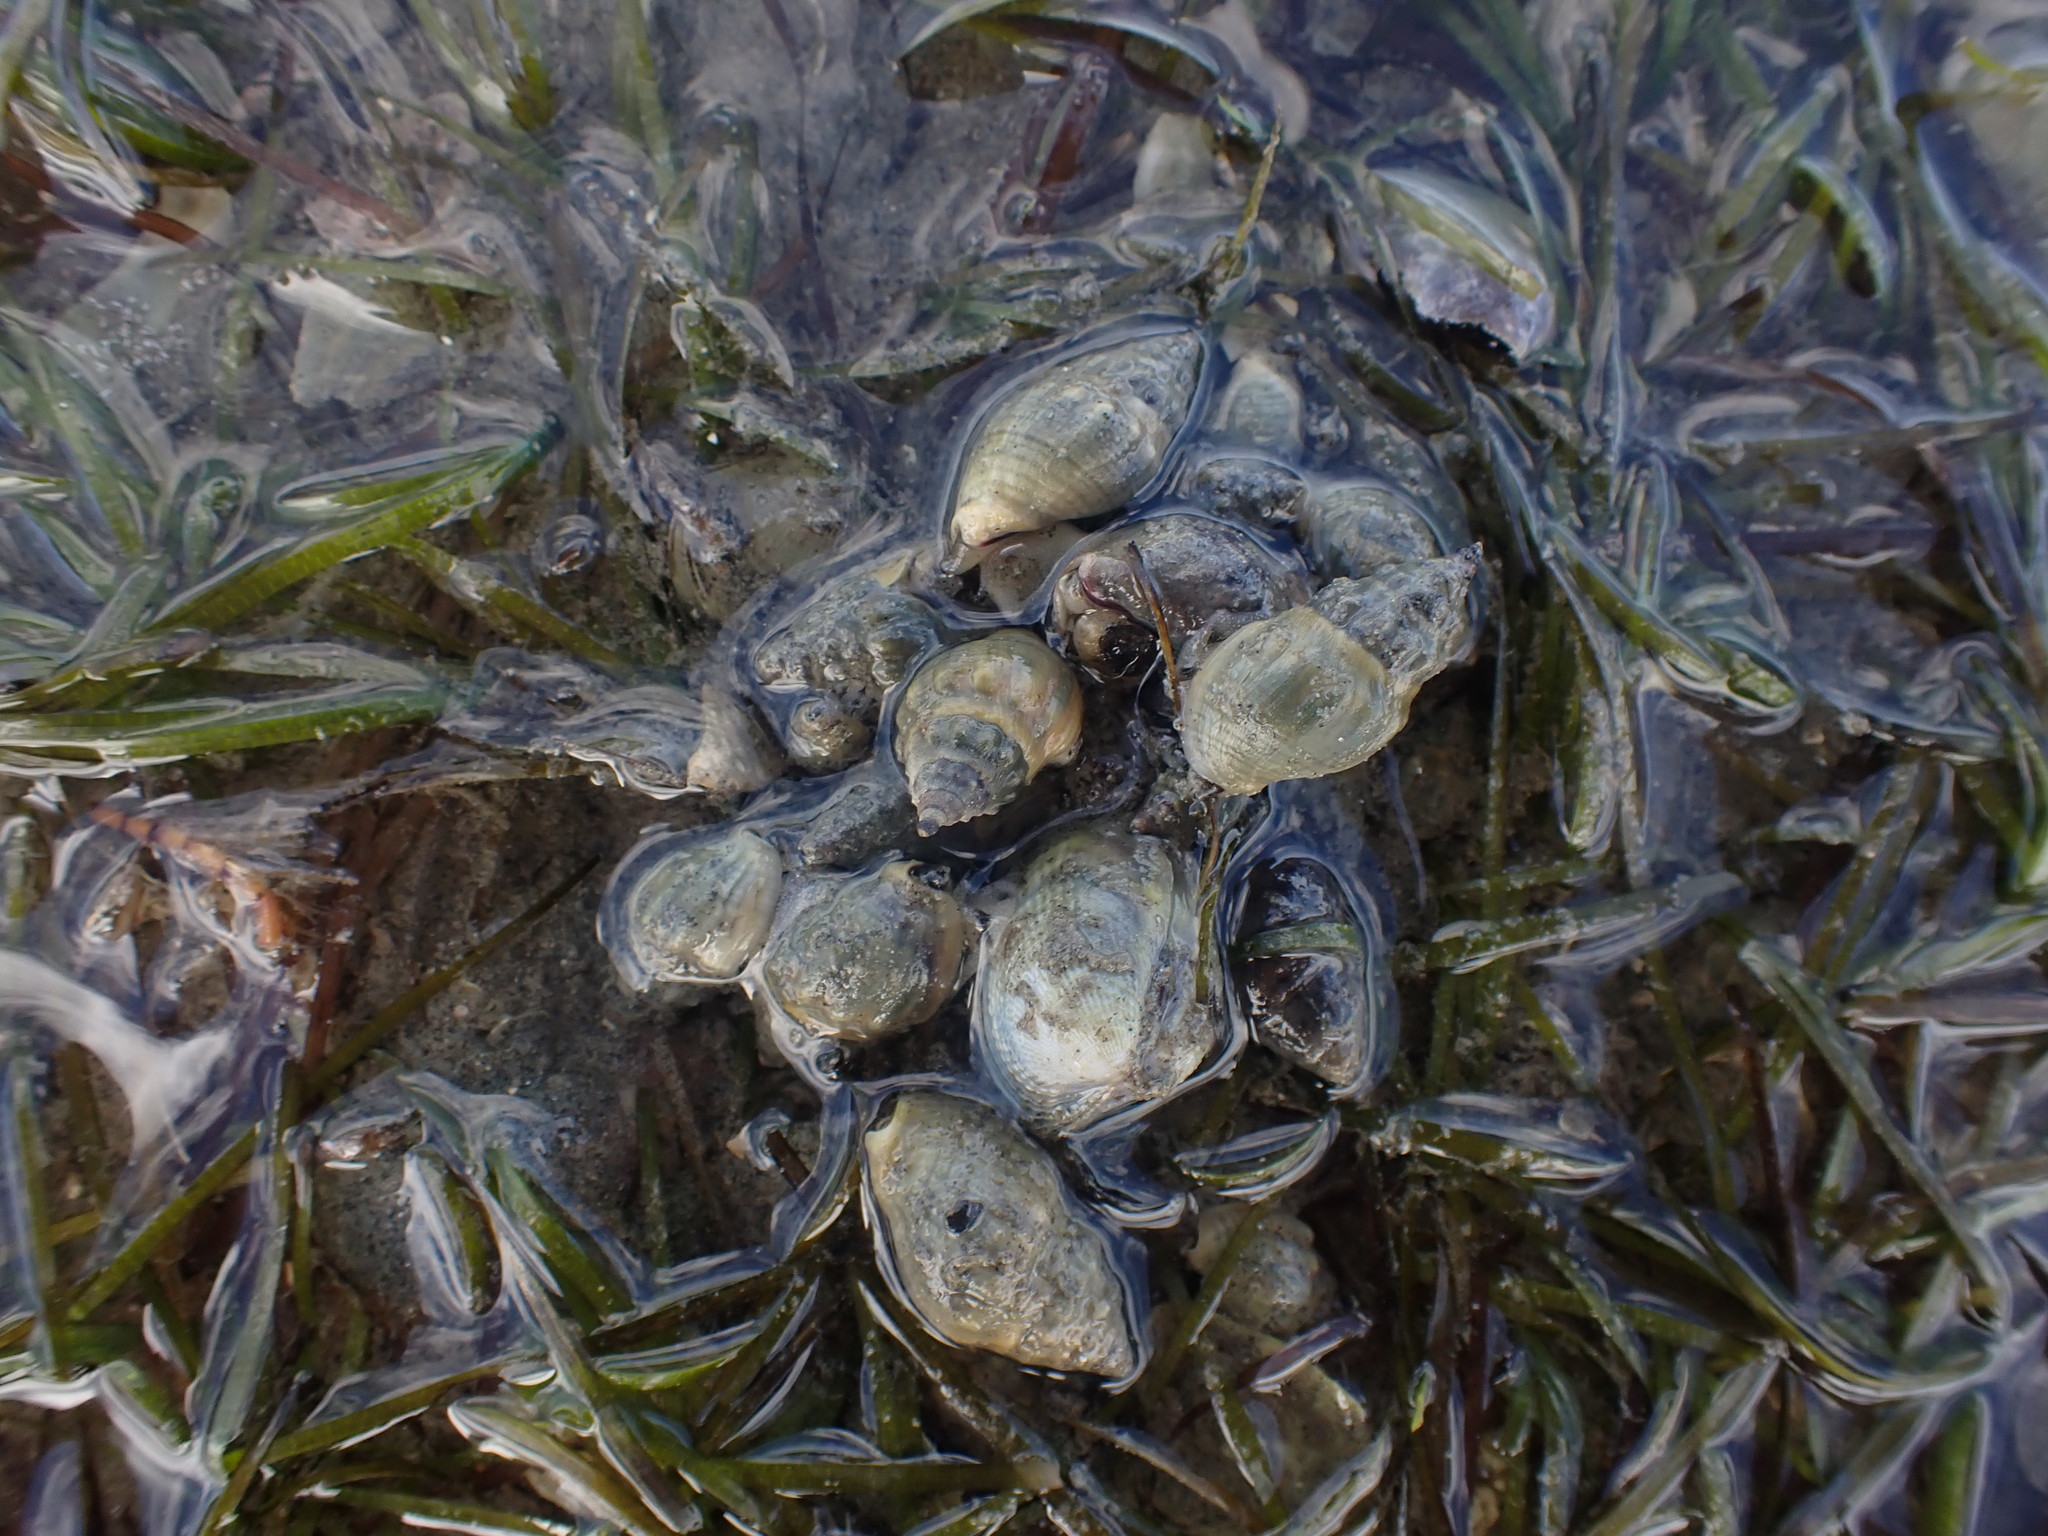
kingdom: Animalia
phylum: Mollusca
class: Gastropoda
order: Neogastropoda
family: Cominellidae
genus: Cominella
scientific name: Cominella glandiformis
